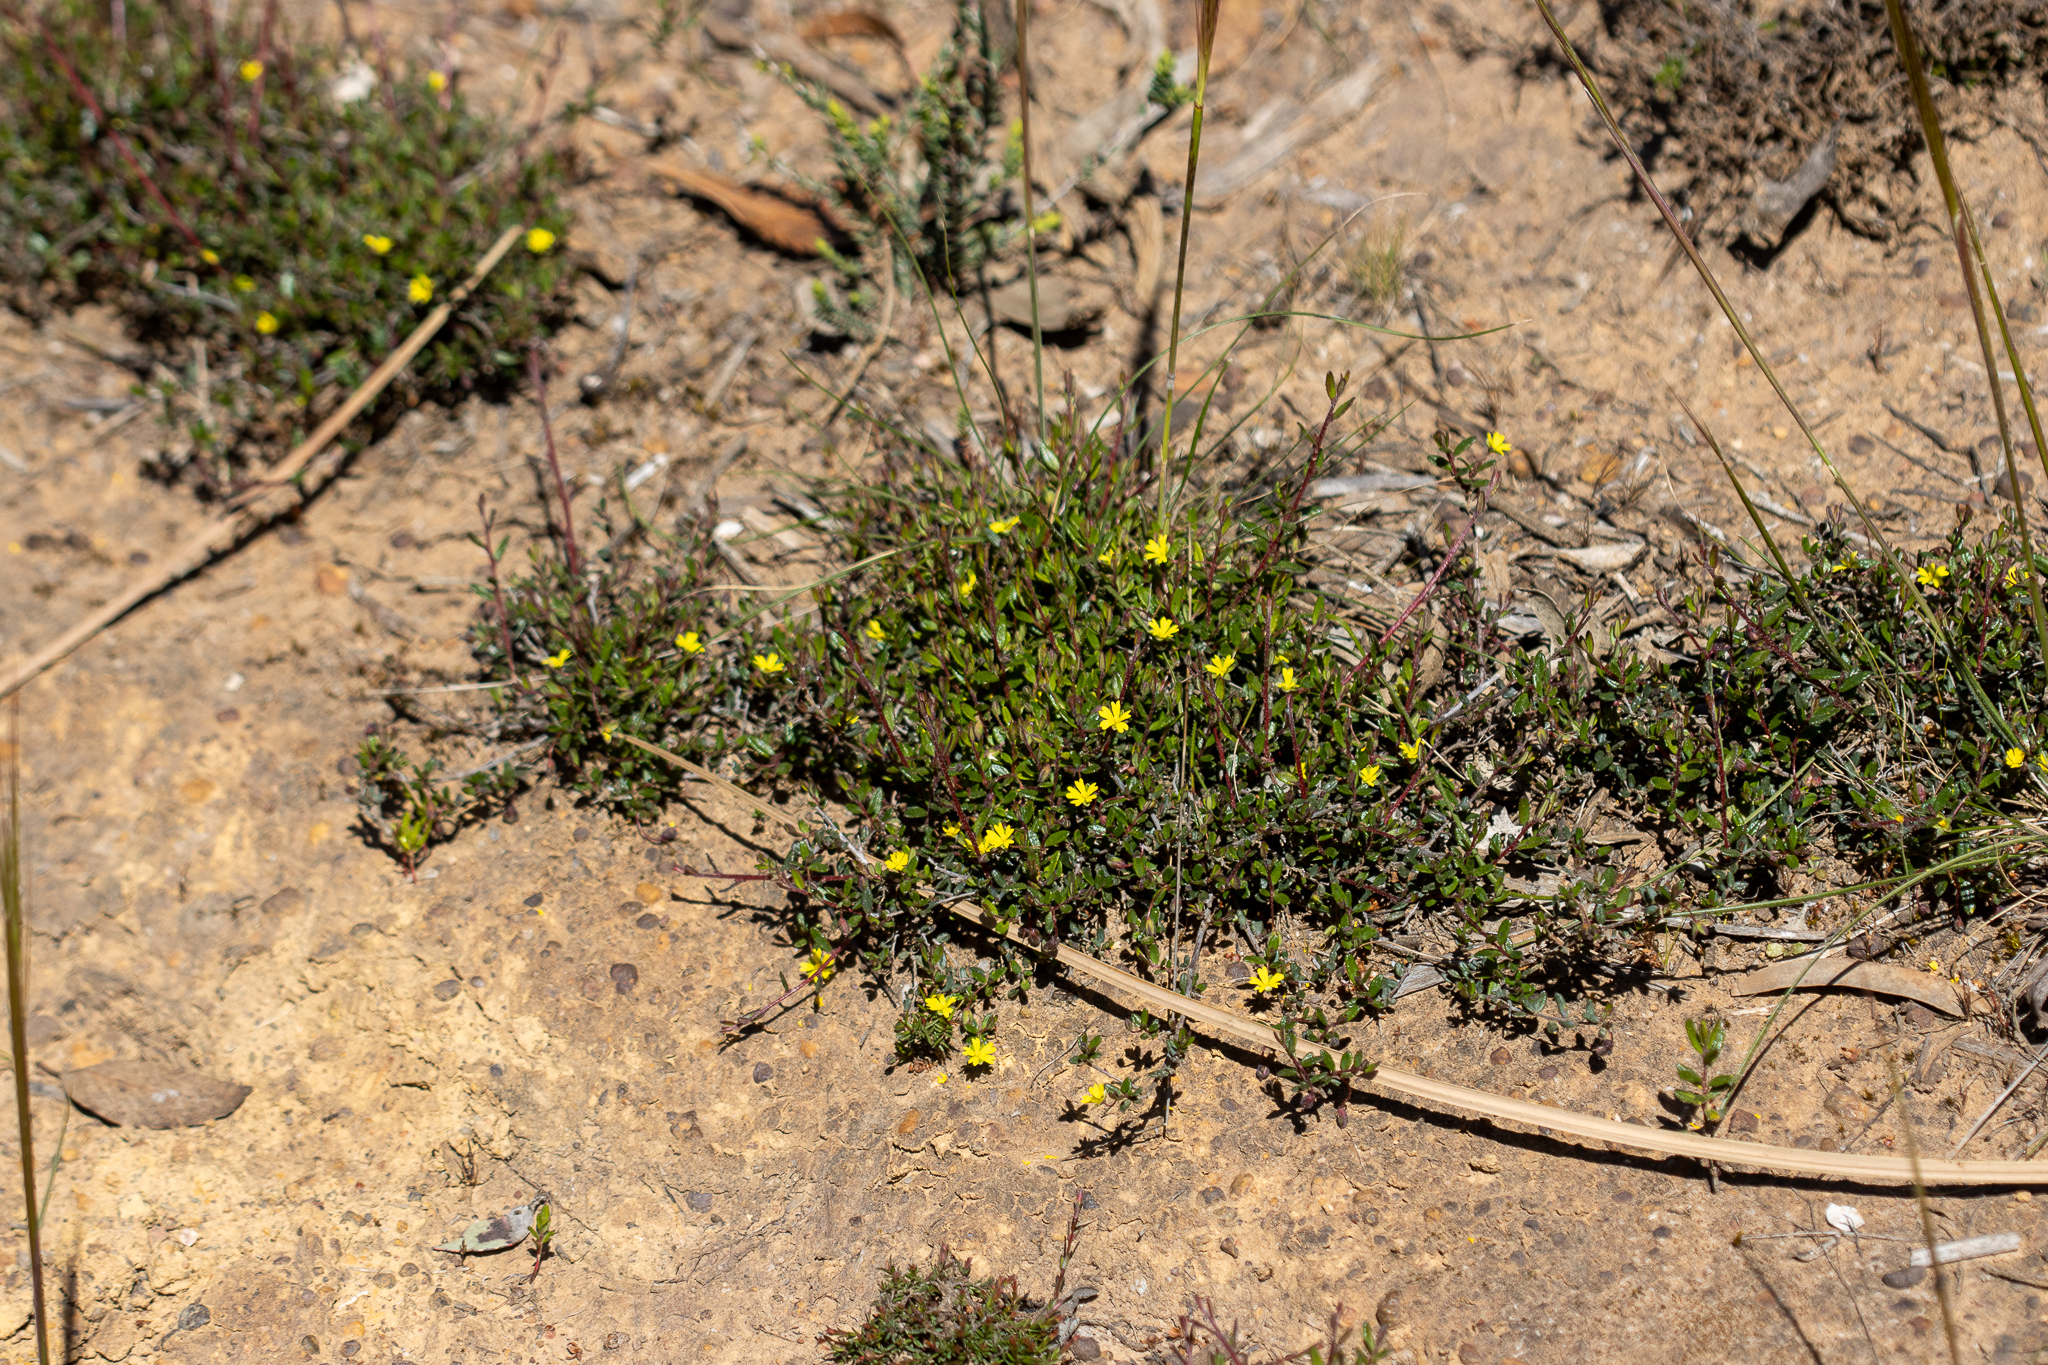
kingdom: Plantae
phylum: Tracheophyta
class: Magnoliopsida
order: Dilleniales
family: Dilleniaceae
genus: Hibbertia
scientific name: Hibbertia
